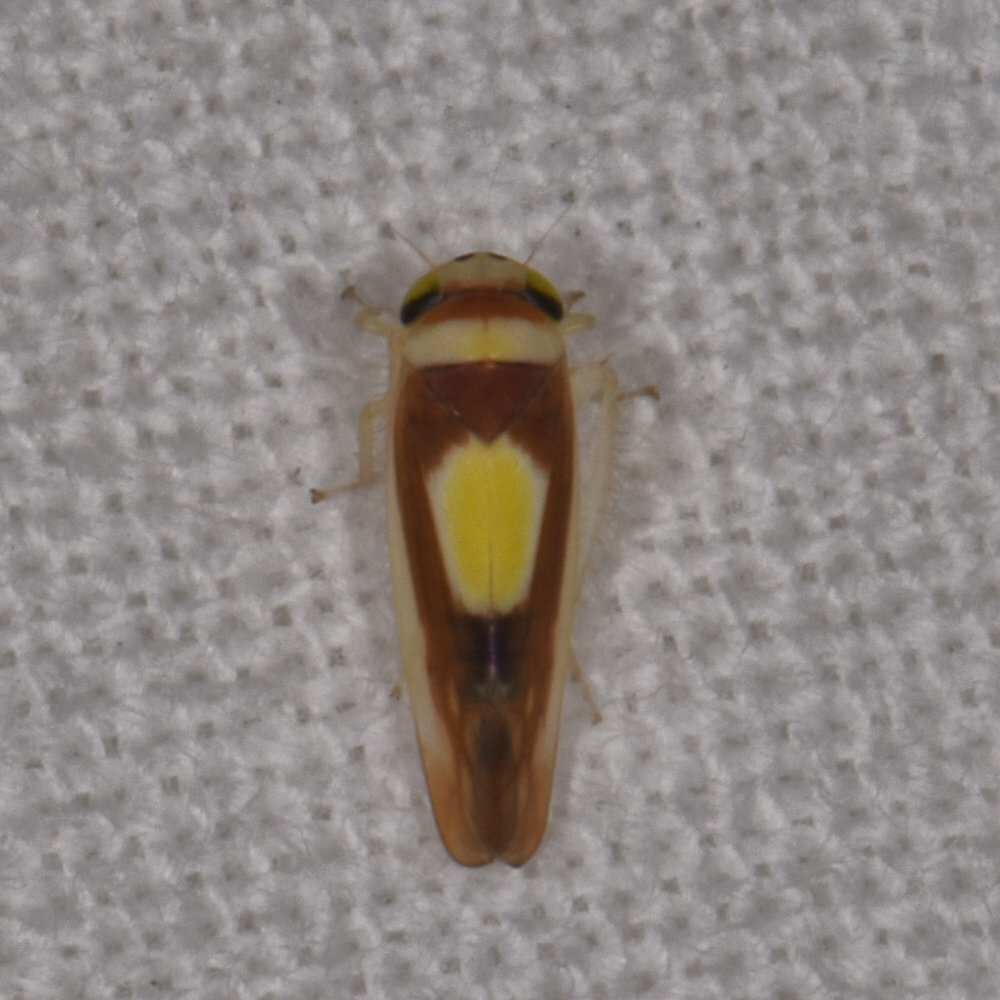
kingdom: Animalia
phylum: Arthropoda
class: Insecta
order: Hemiptera
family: Cicadellidae
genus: Colladonus
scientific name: Colladonus clitellarius
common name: The saddleback leafhopper
